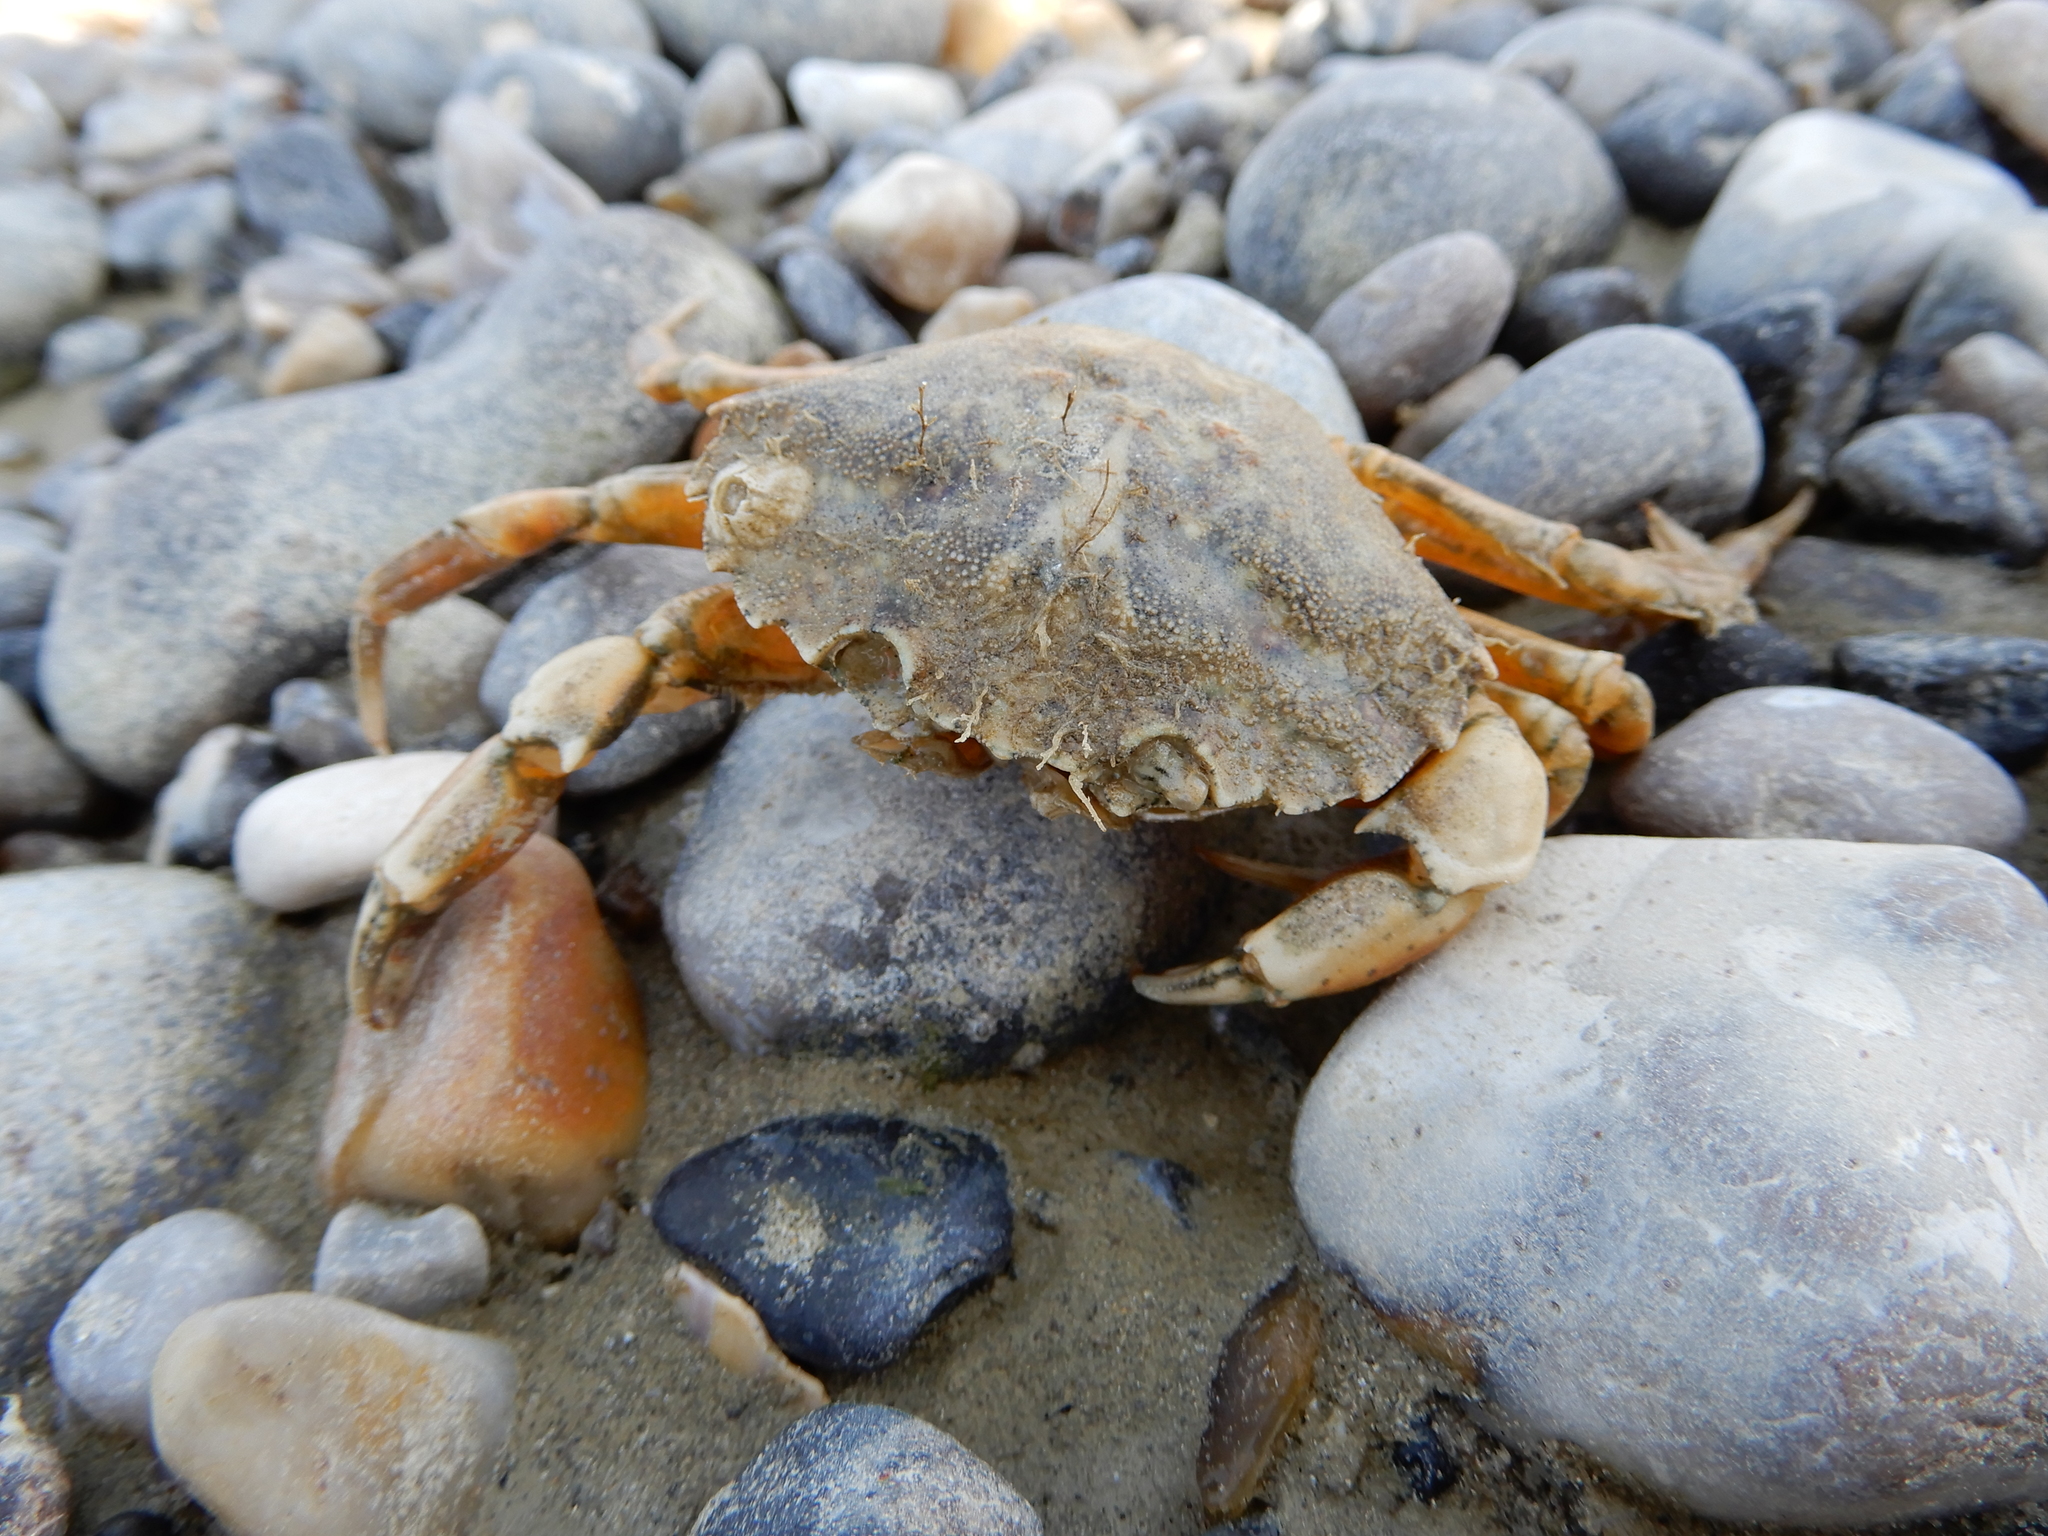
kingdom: Animalia
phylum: Arthropoda
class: Malacostraca
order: Decapoda
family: Carcinidae
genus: Carcinus
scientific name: Carcinus maenas
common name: European green crab
